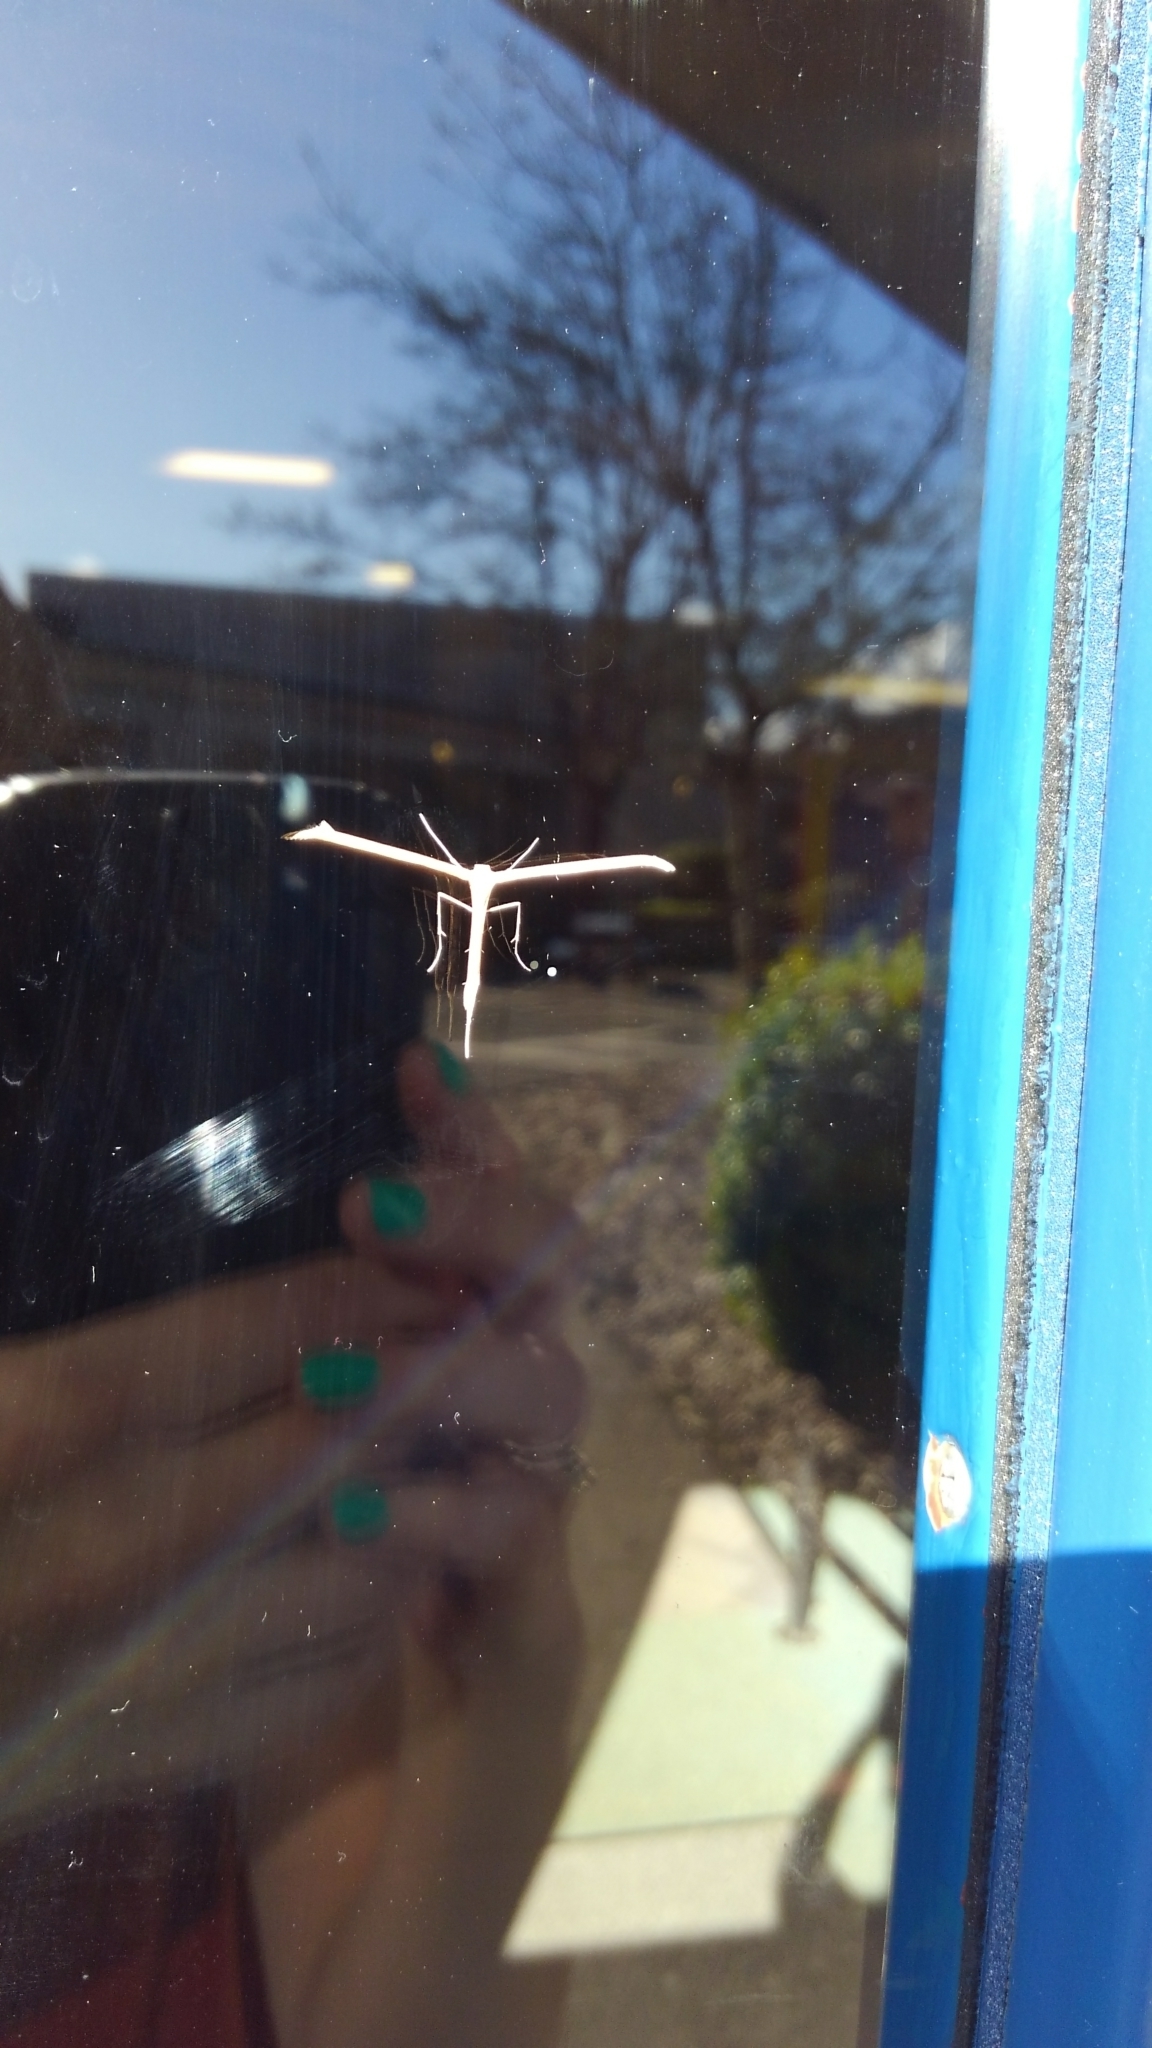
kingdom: Animalia
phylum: Arthropoda
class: Insecta
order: Lepidoptera
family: Pterophoridae
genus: Emmelina
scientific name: Emmelina monodactyla
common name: Common plume
